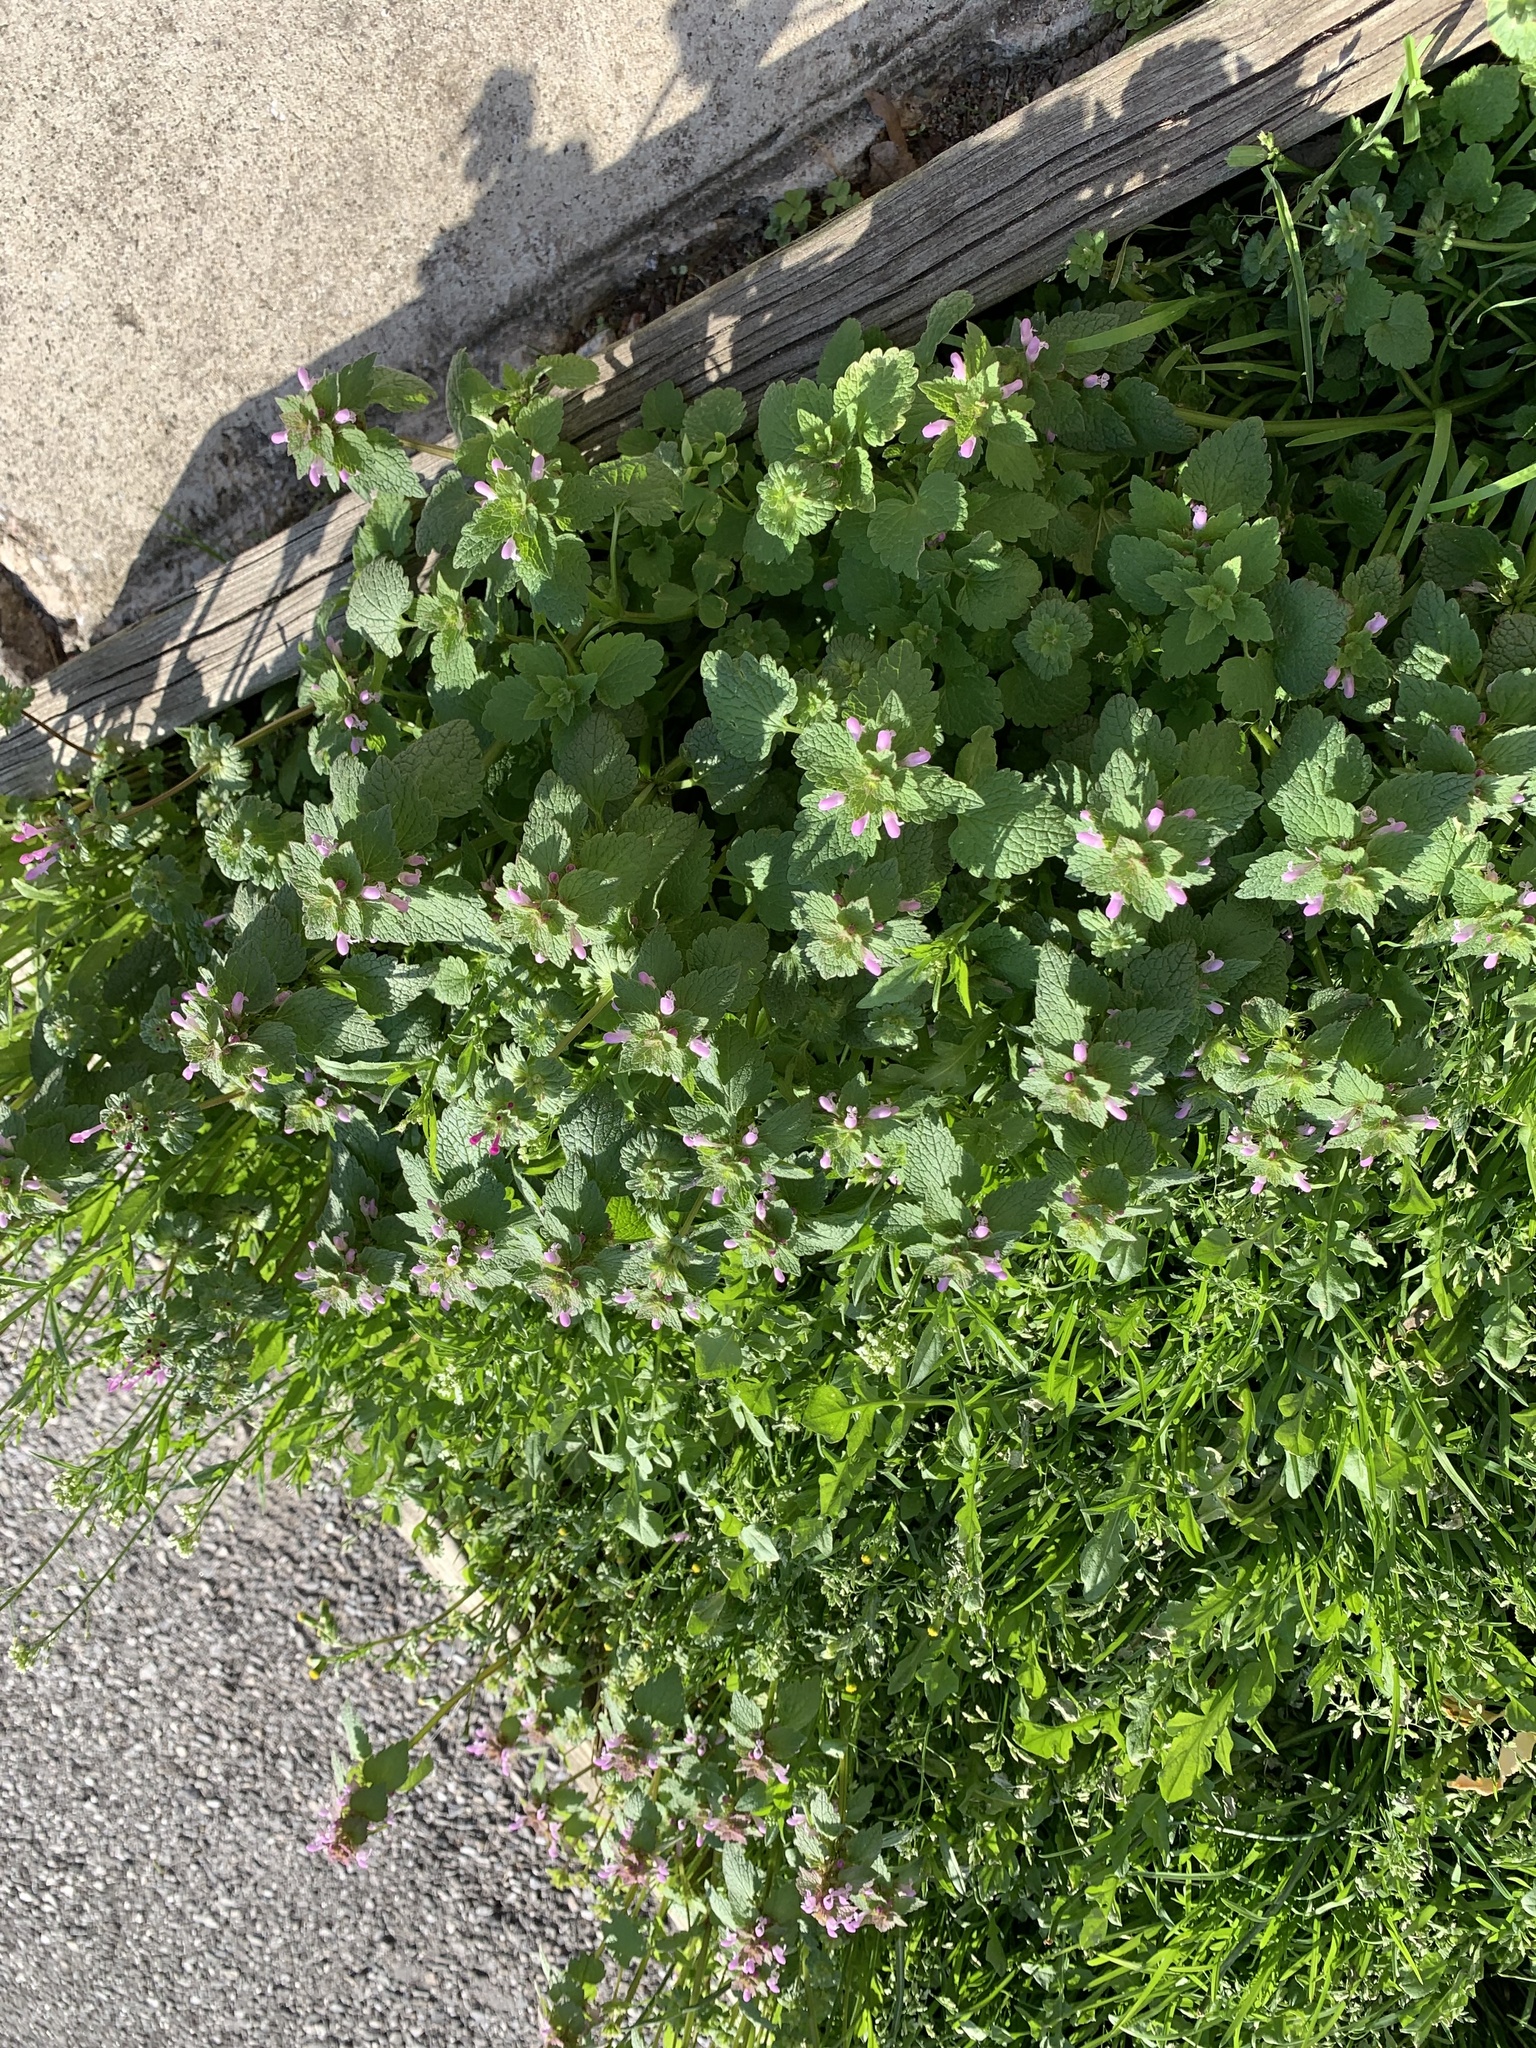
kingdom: Plantae
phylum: Tracheophyta
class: Magnoliopsida
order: Lamiales
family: Lamiaceae
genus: Lamium
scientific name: Lamium purpureum
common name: Red dead-nettle
